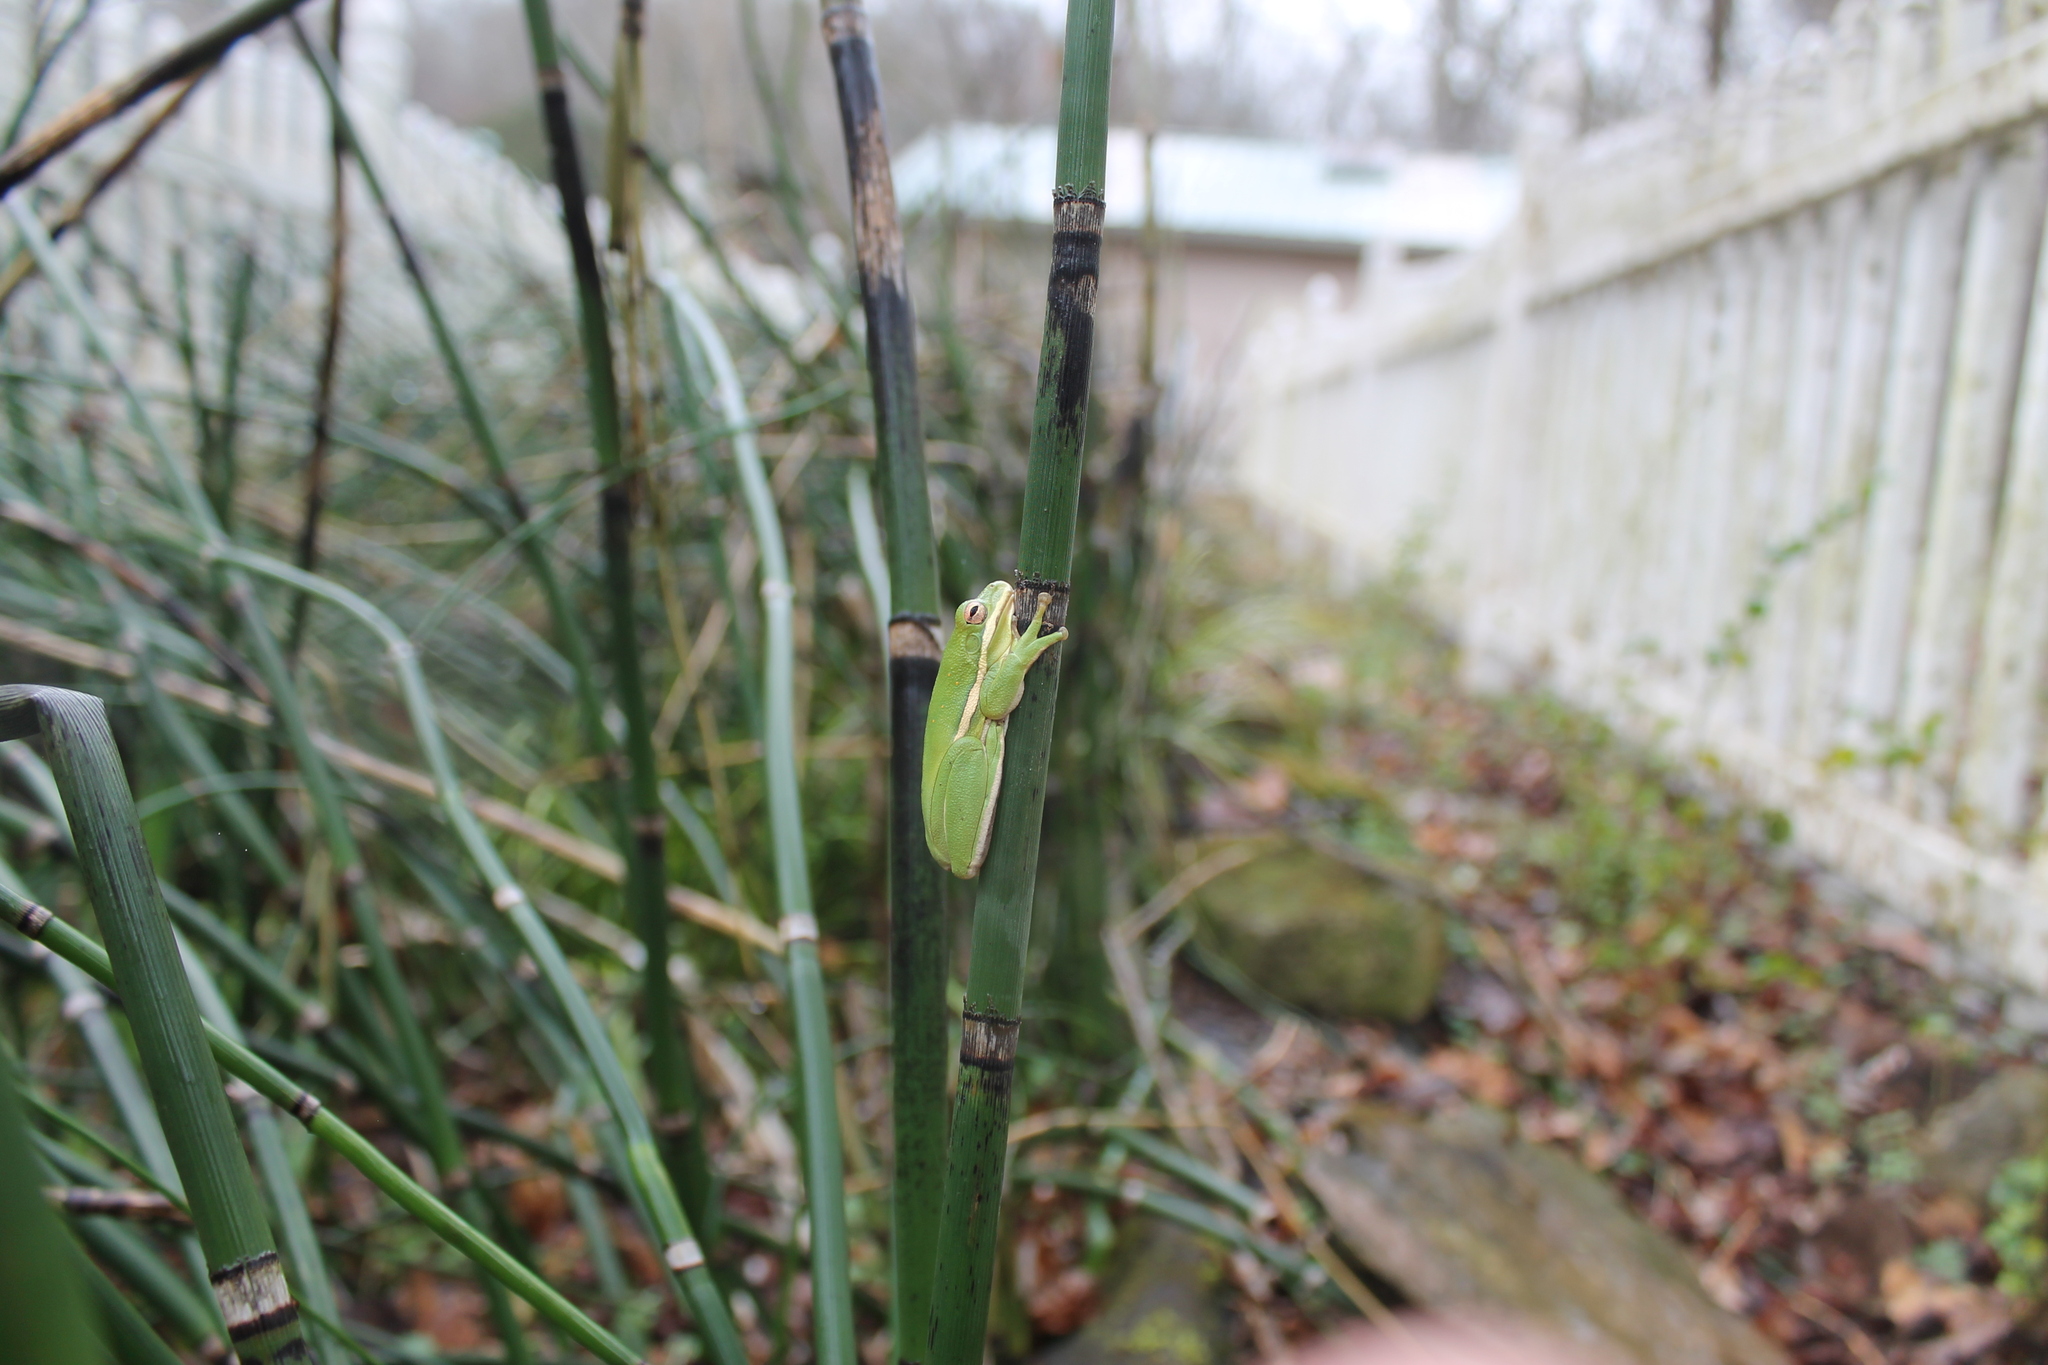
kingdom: Animalia
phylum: Chordata
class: Amphibia
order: Anura
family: Hylidae
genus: Dryophytes
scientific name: Dryophytes cinereus
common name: Green treefrog
